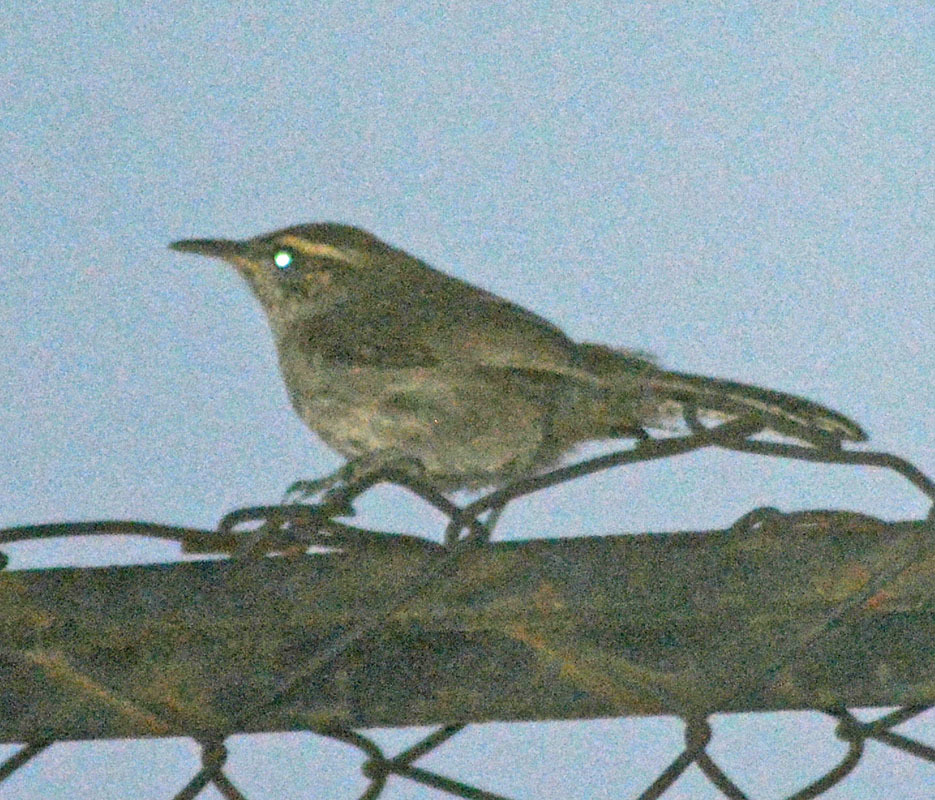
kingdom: Animalia
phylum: Chordata
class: Aves
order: Passeriformes
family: Troglodytidae
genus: Thryomanes
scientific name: Thryomanes bewickii
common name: Bewick's wren
